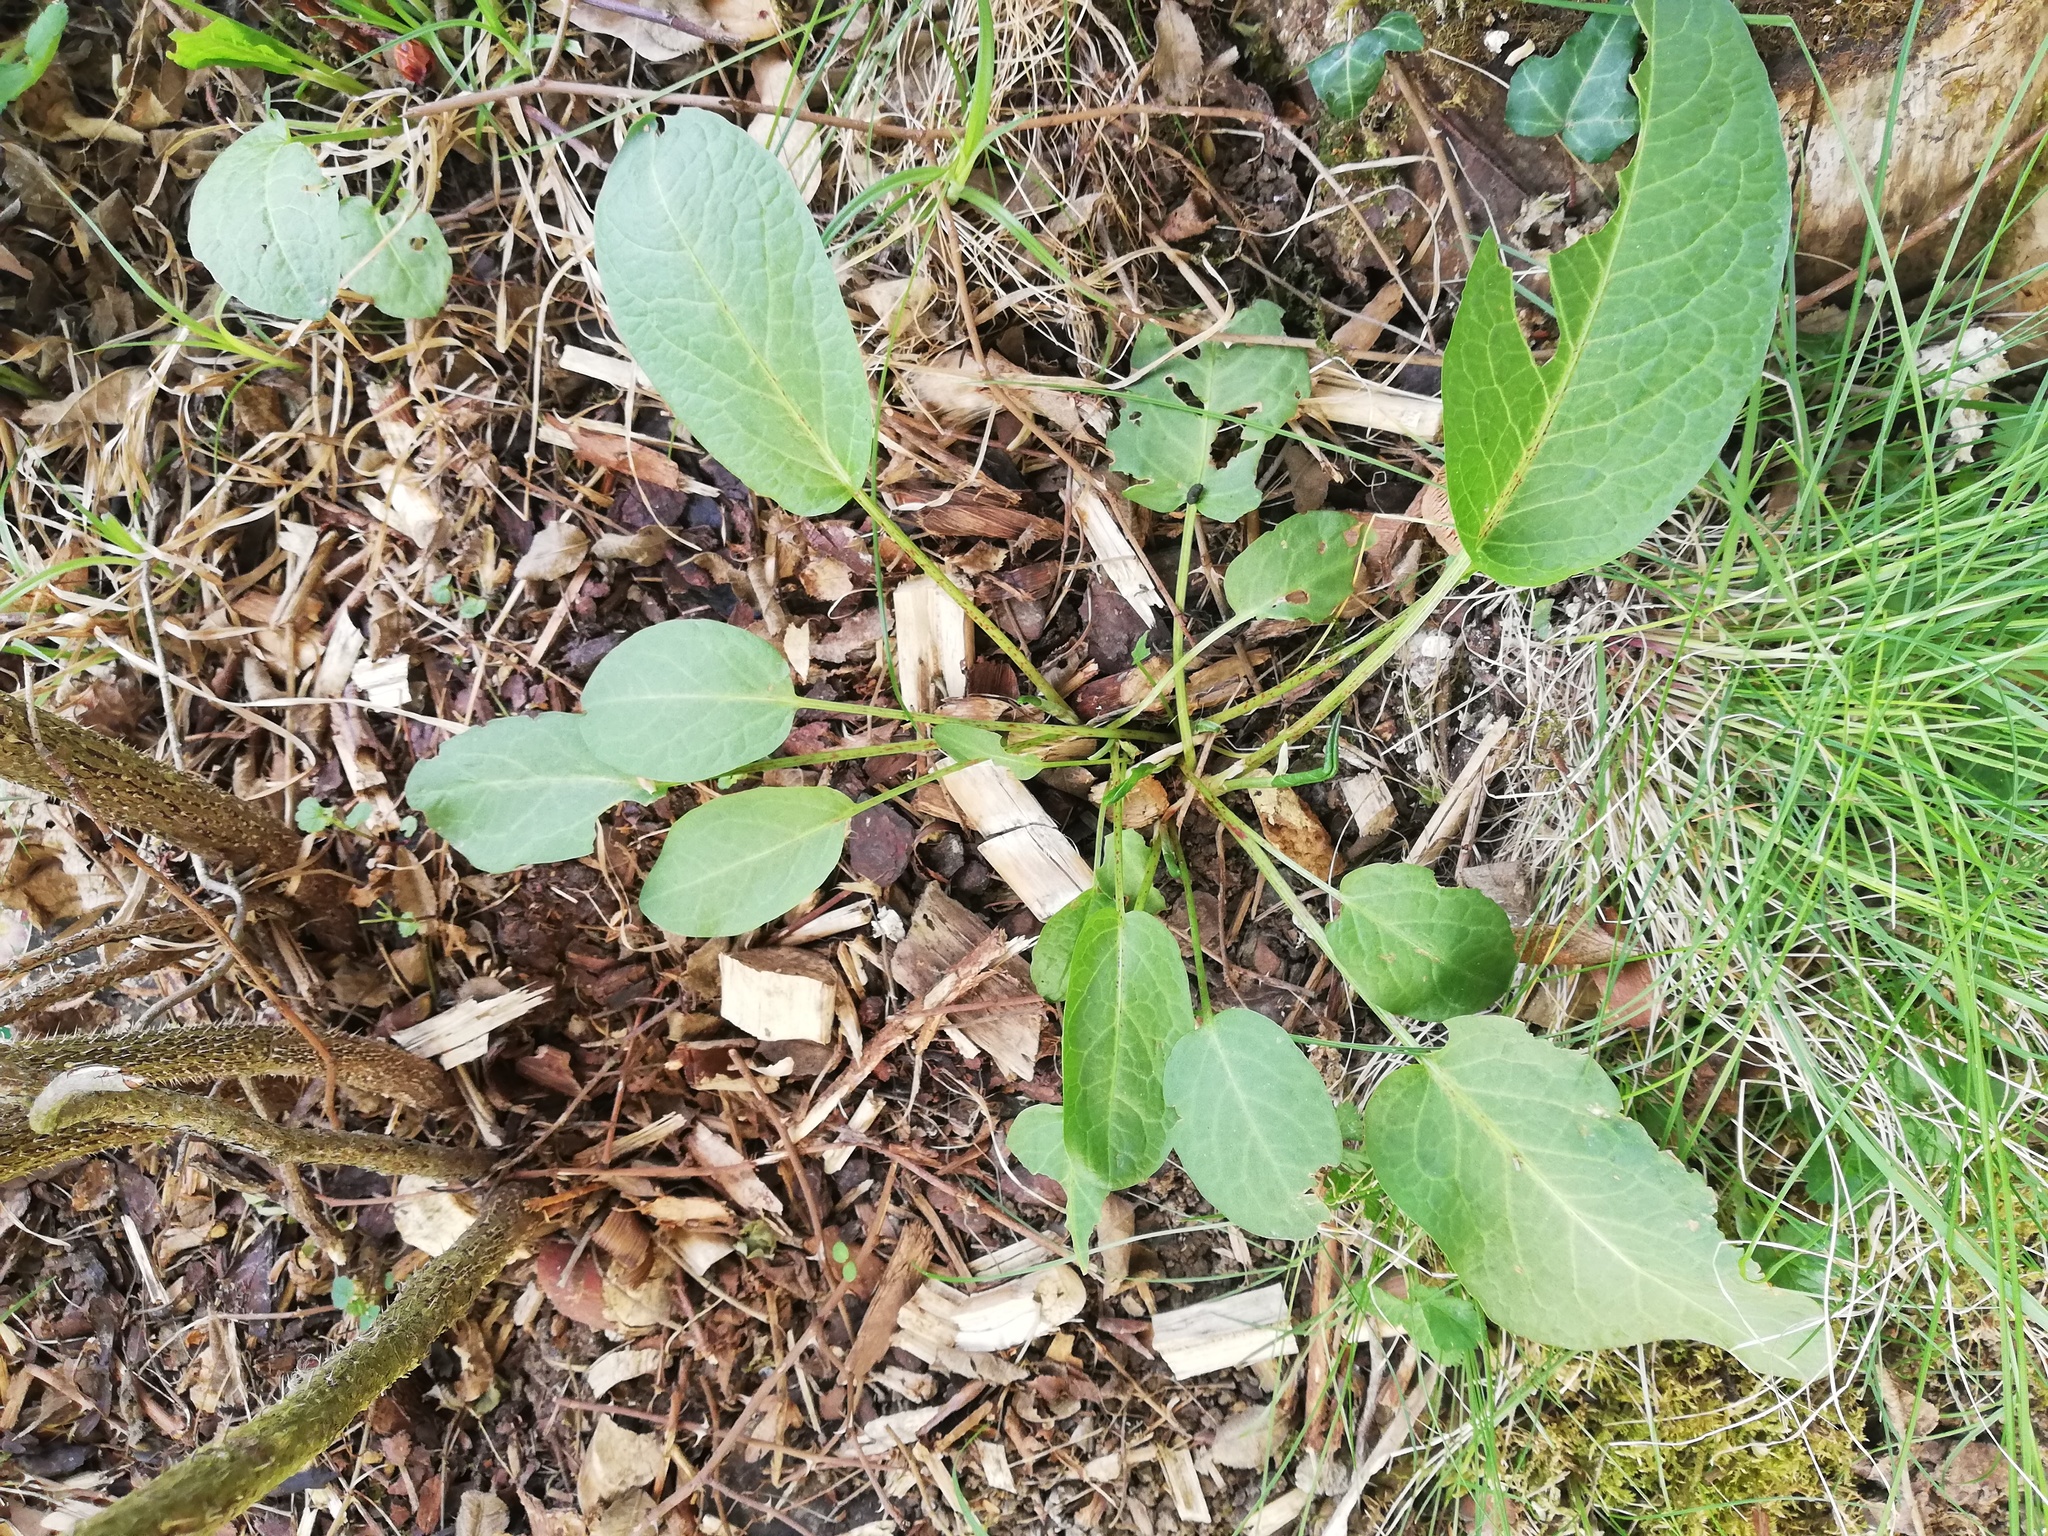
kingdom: Plantae
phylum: Tracheophyta
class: Magnoliopsida
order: Caryophyllales
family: Polygonaceae
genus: Rumex
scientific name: Rumex obtusifolius
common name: Bitter dock
